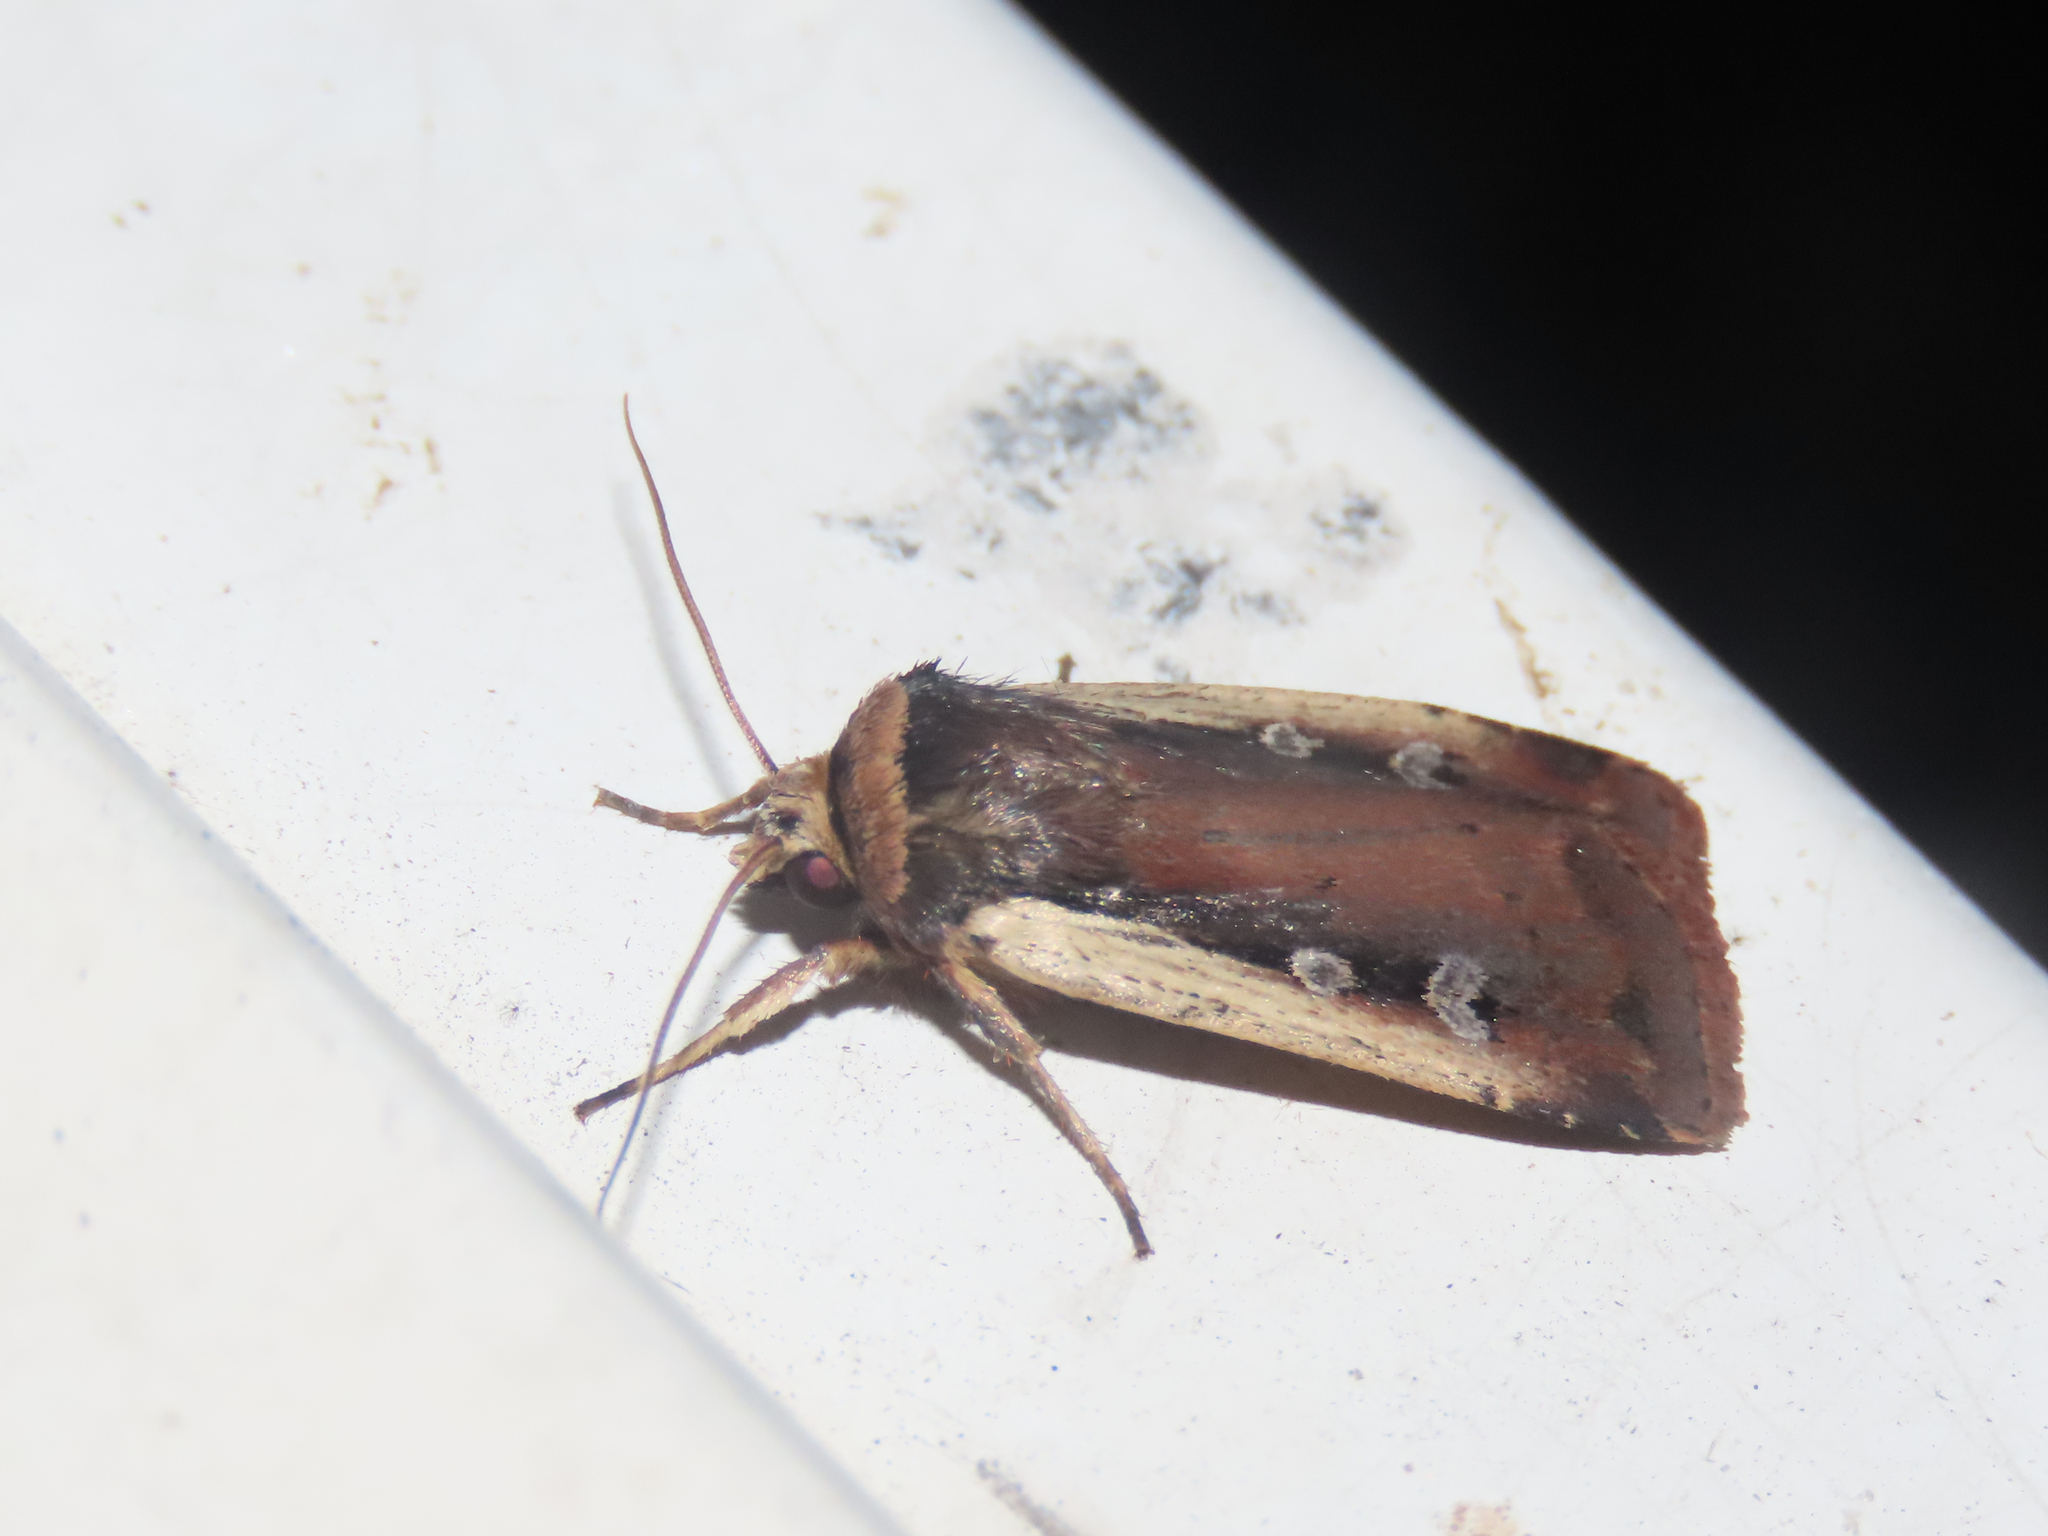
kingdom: Animalia
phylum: Arthropoda
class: Insecta
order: Lepidoptera
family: Noctuidae
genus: Ochropleura
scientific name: Ochropleura implecta
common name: Flame-shouldered dart
